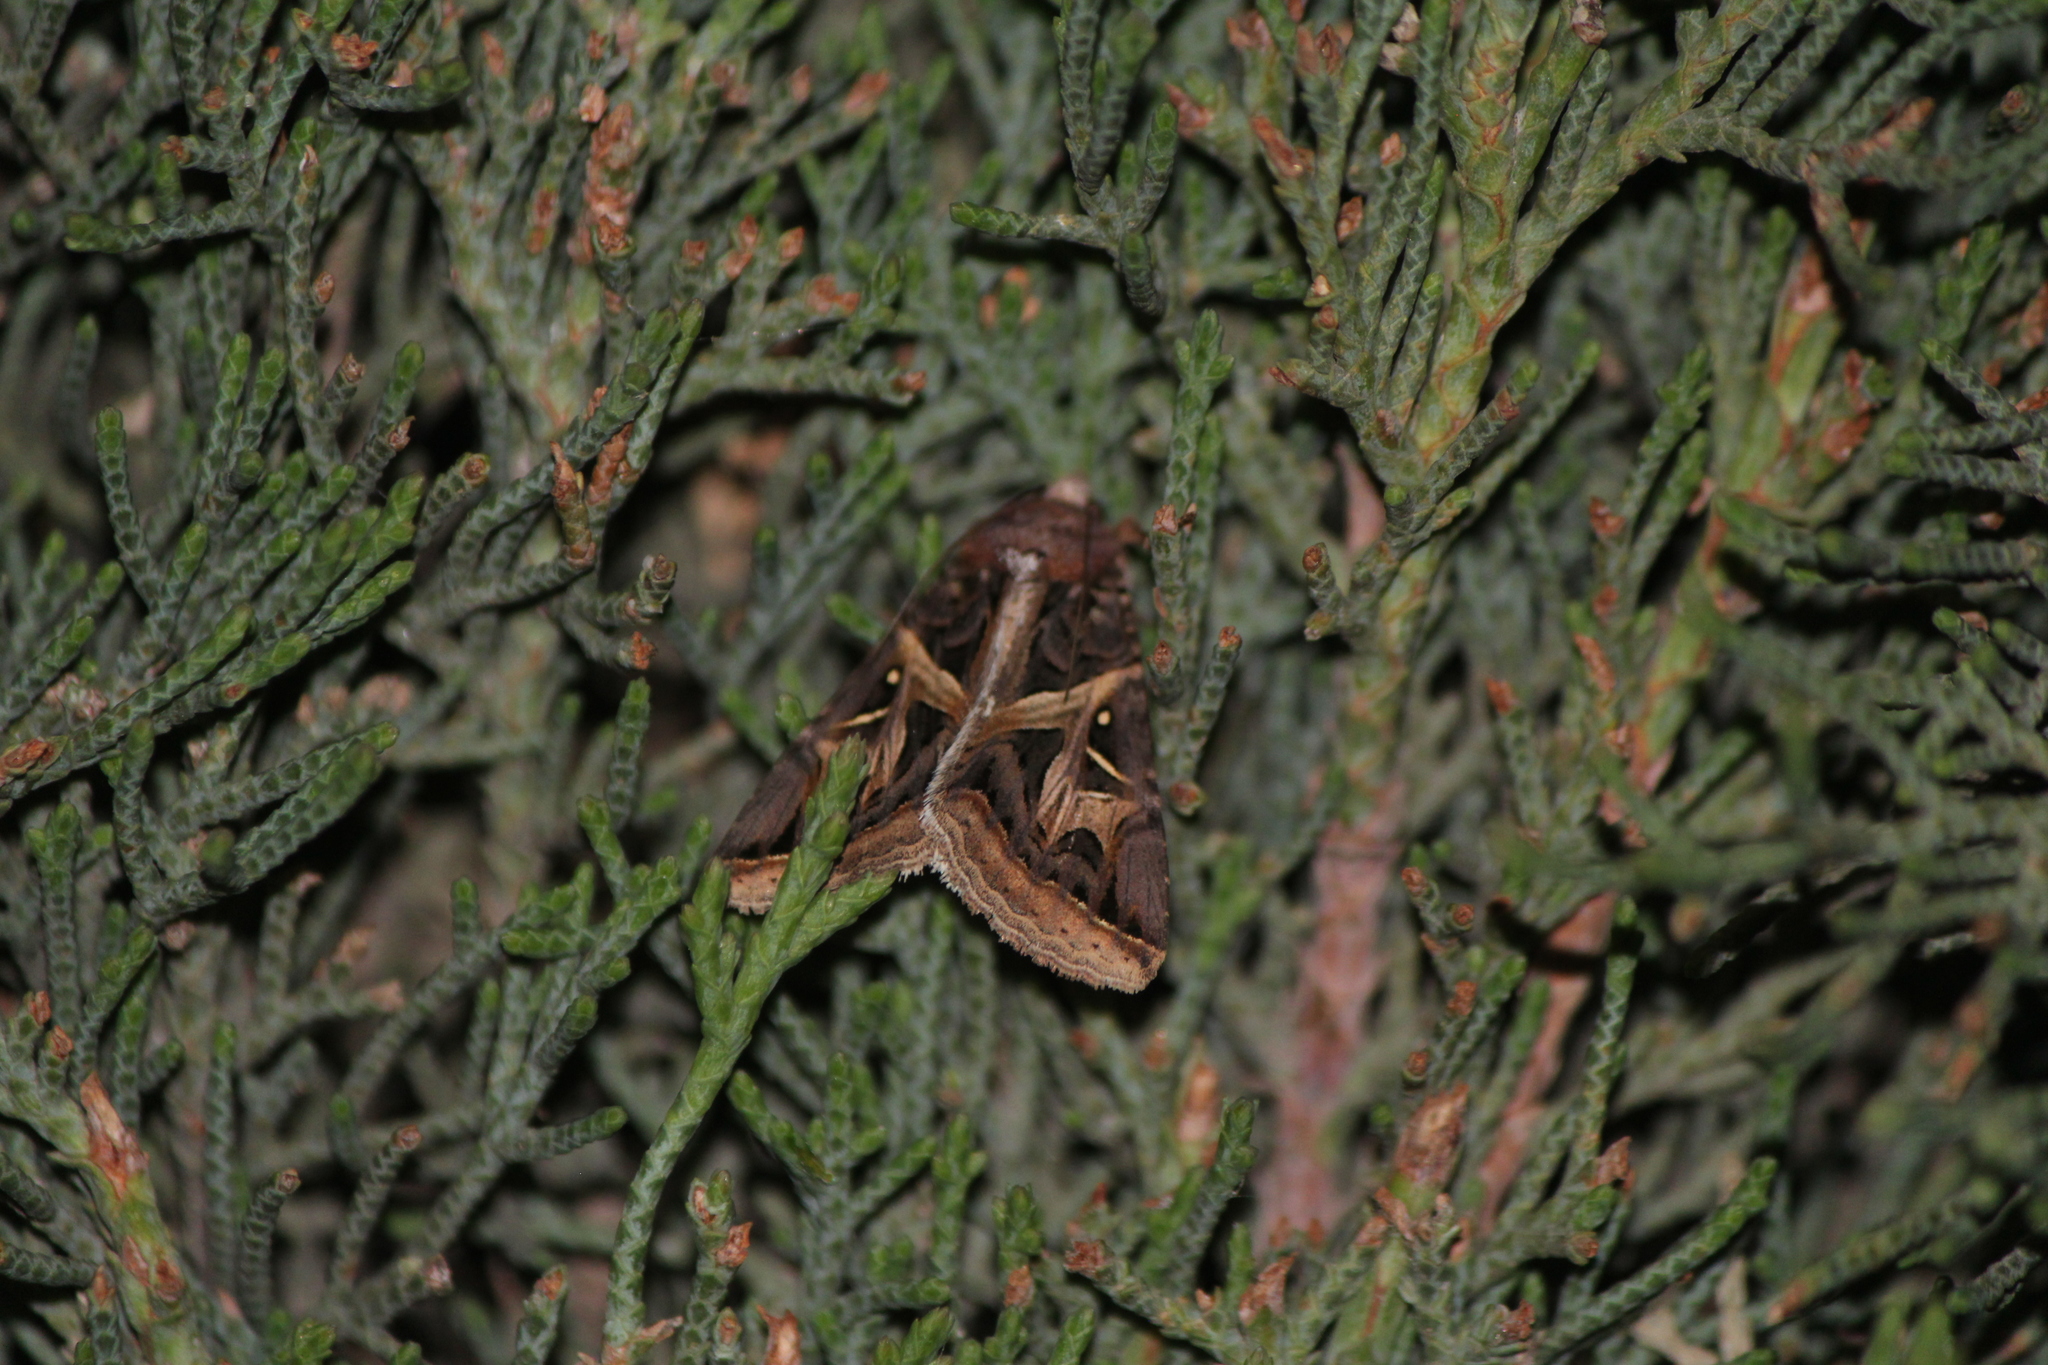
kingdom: Animalia
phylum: Arthropoda
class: Insecta
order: Lepidoptera
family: Erebidae
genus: Ianius
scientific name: Ianius mosca
